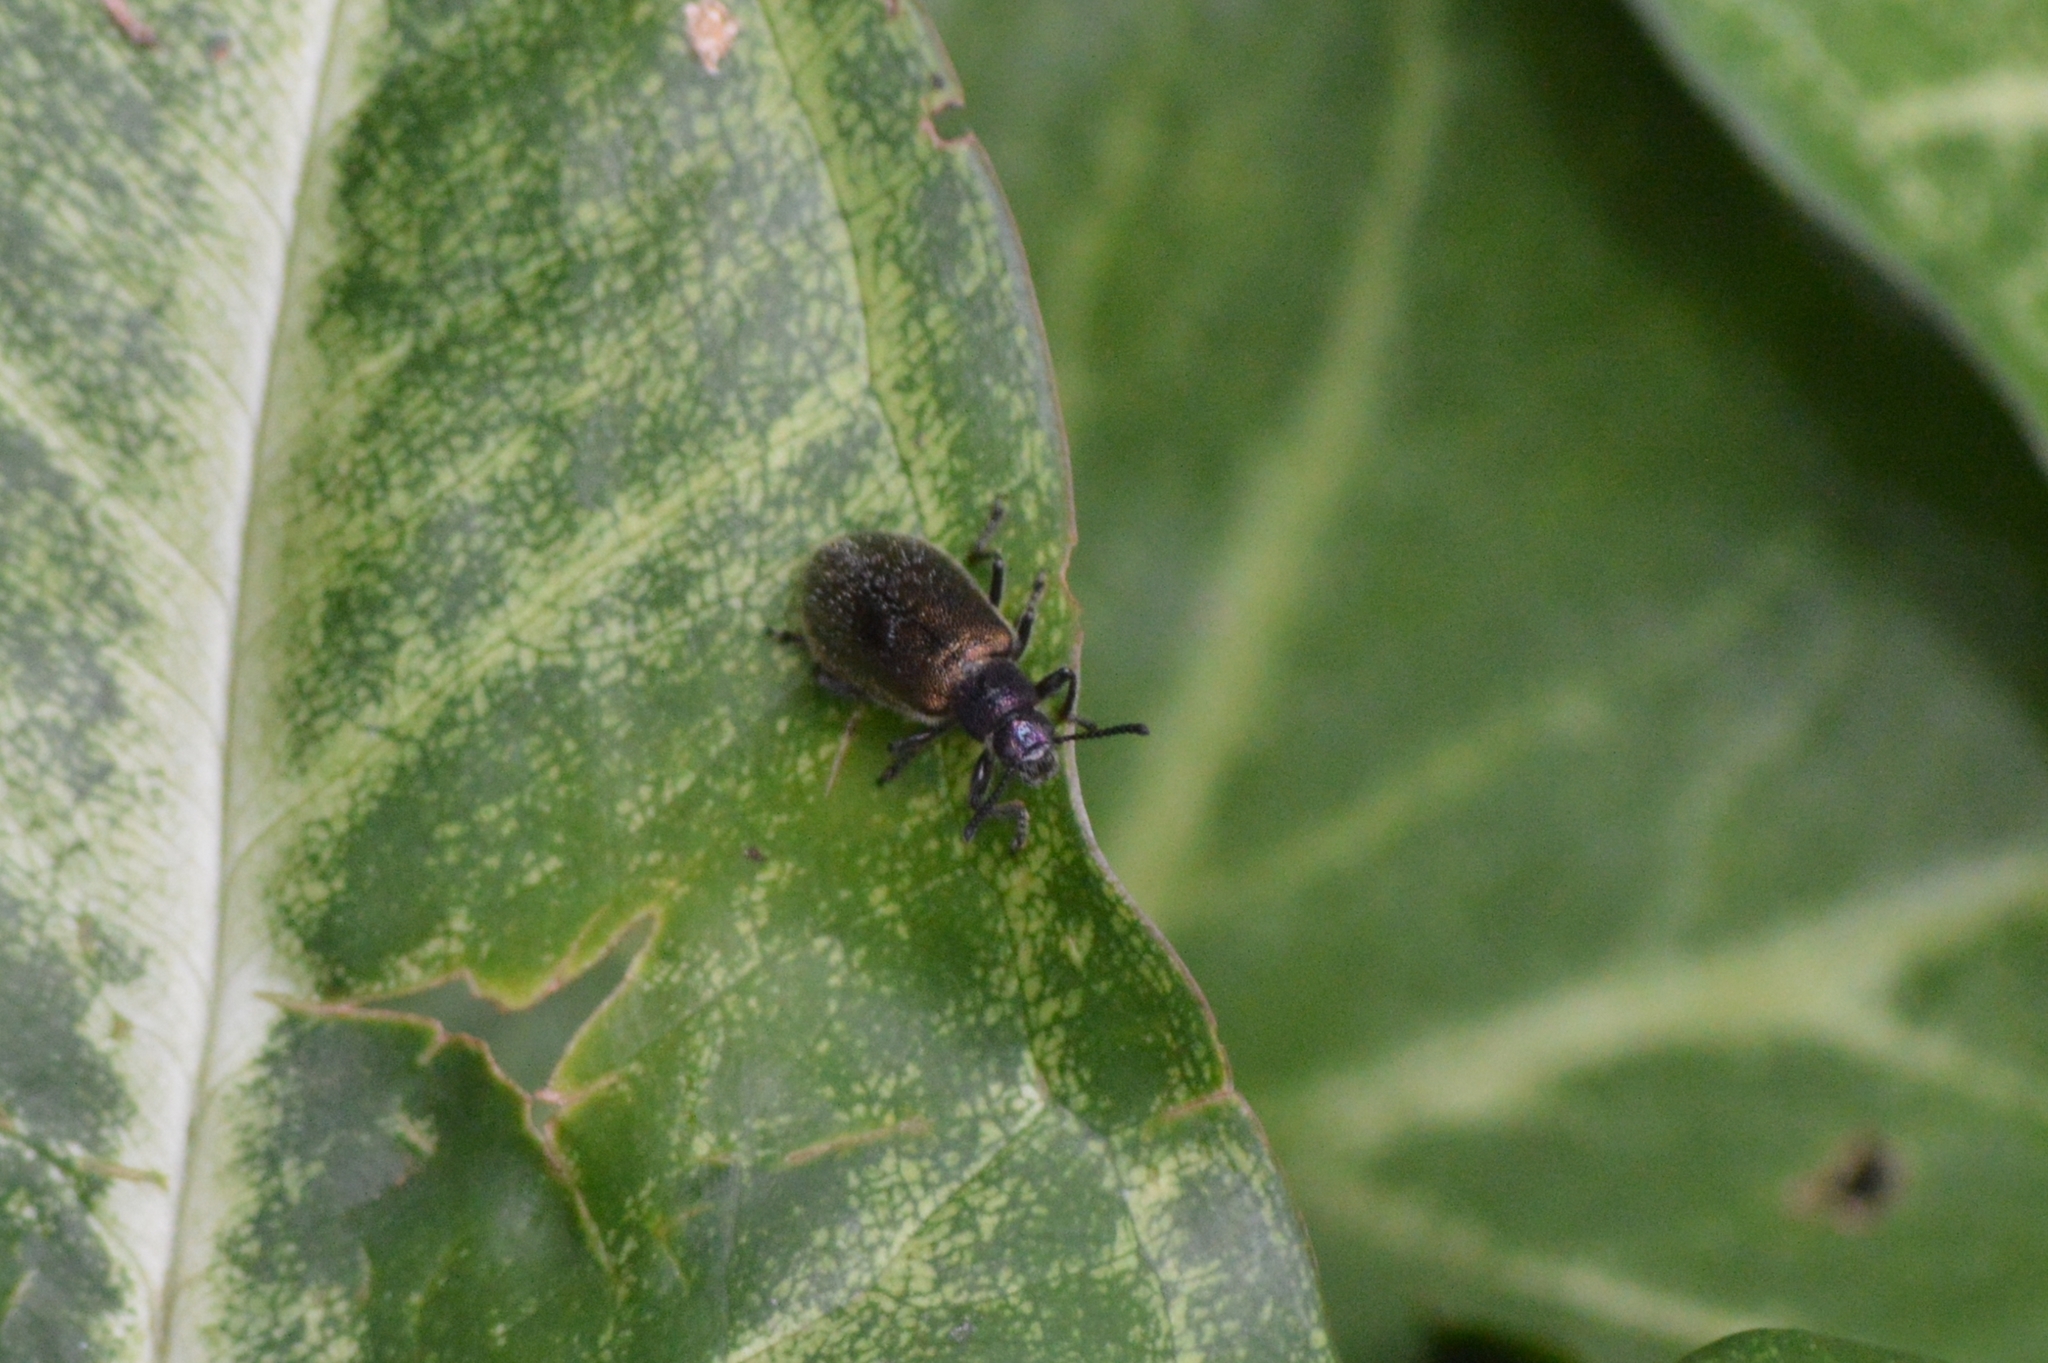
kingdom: Animalia
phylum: Arthropoda
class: Insecta
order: Coleoptera
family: Tenebrionidae
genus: Lagria
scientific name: Lagria villosa
